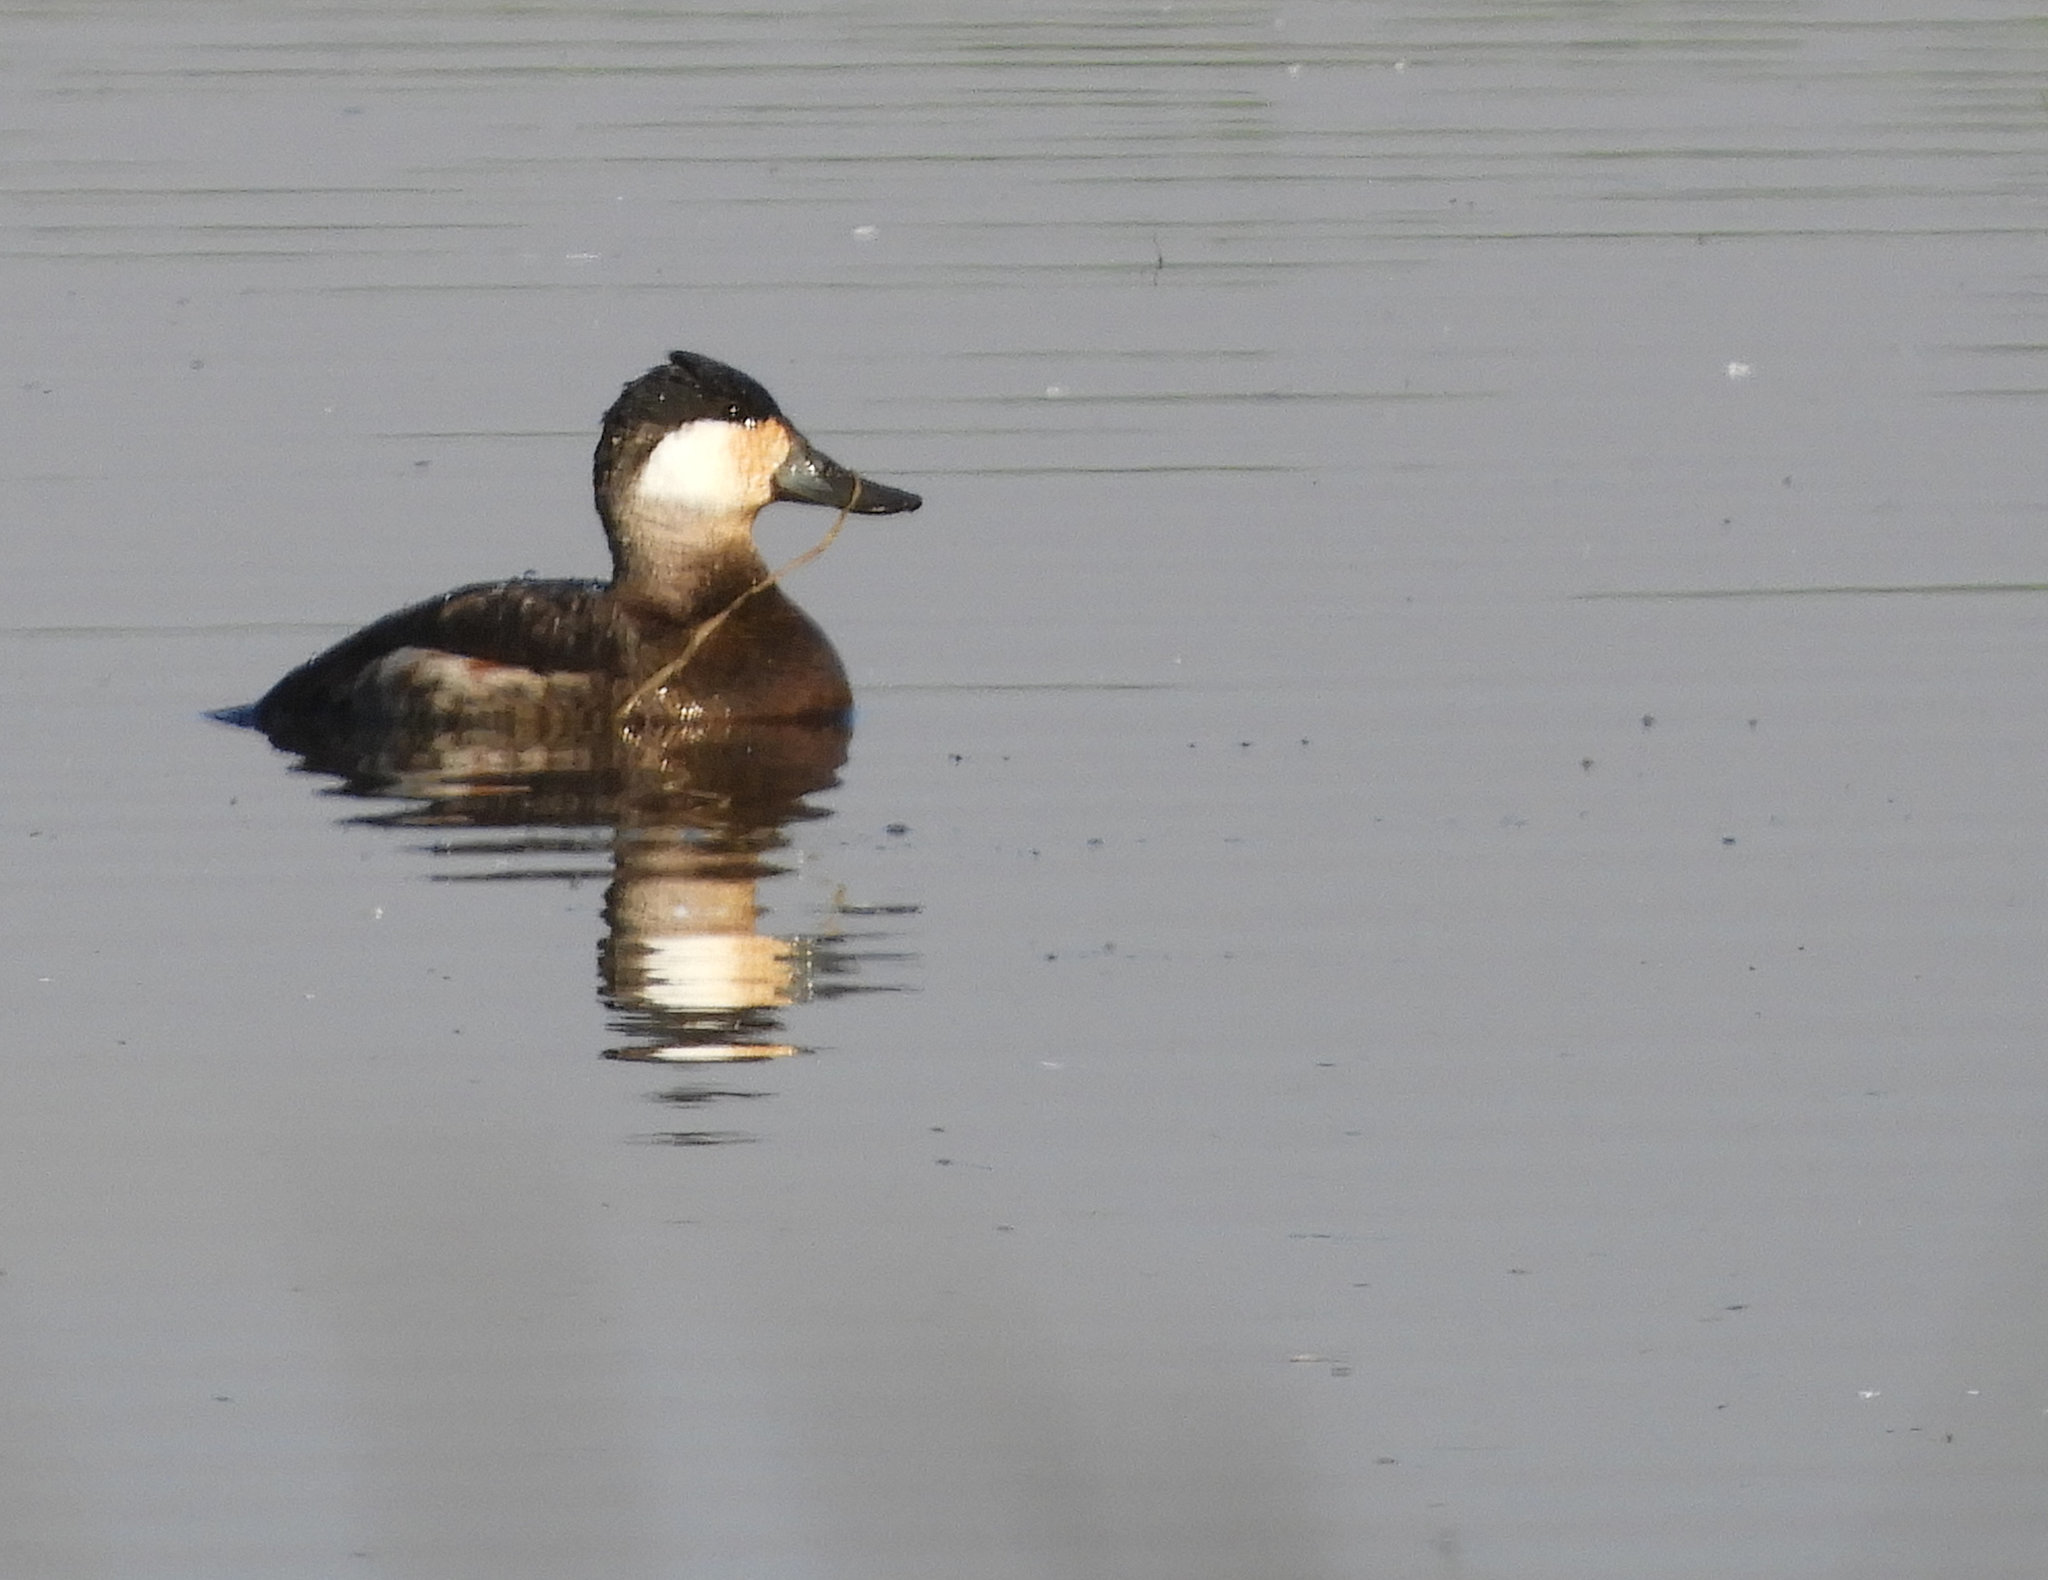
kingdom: Animalia
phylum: Chordata
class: Aves
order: Anseriformes
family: Anatidae
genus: Oxyura
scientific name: Oxyura jamaicensis
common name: Ruddy duck
